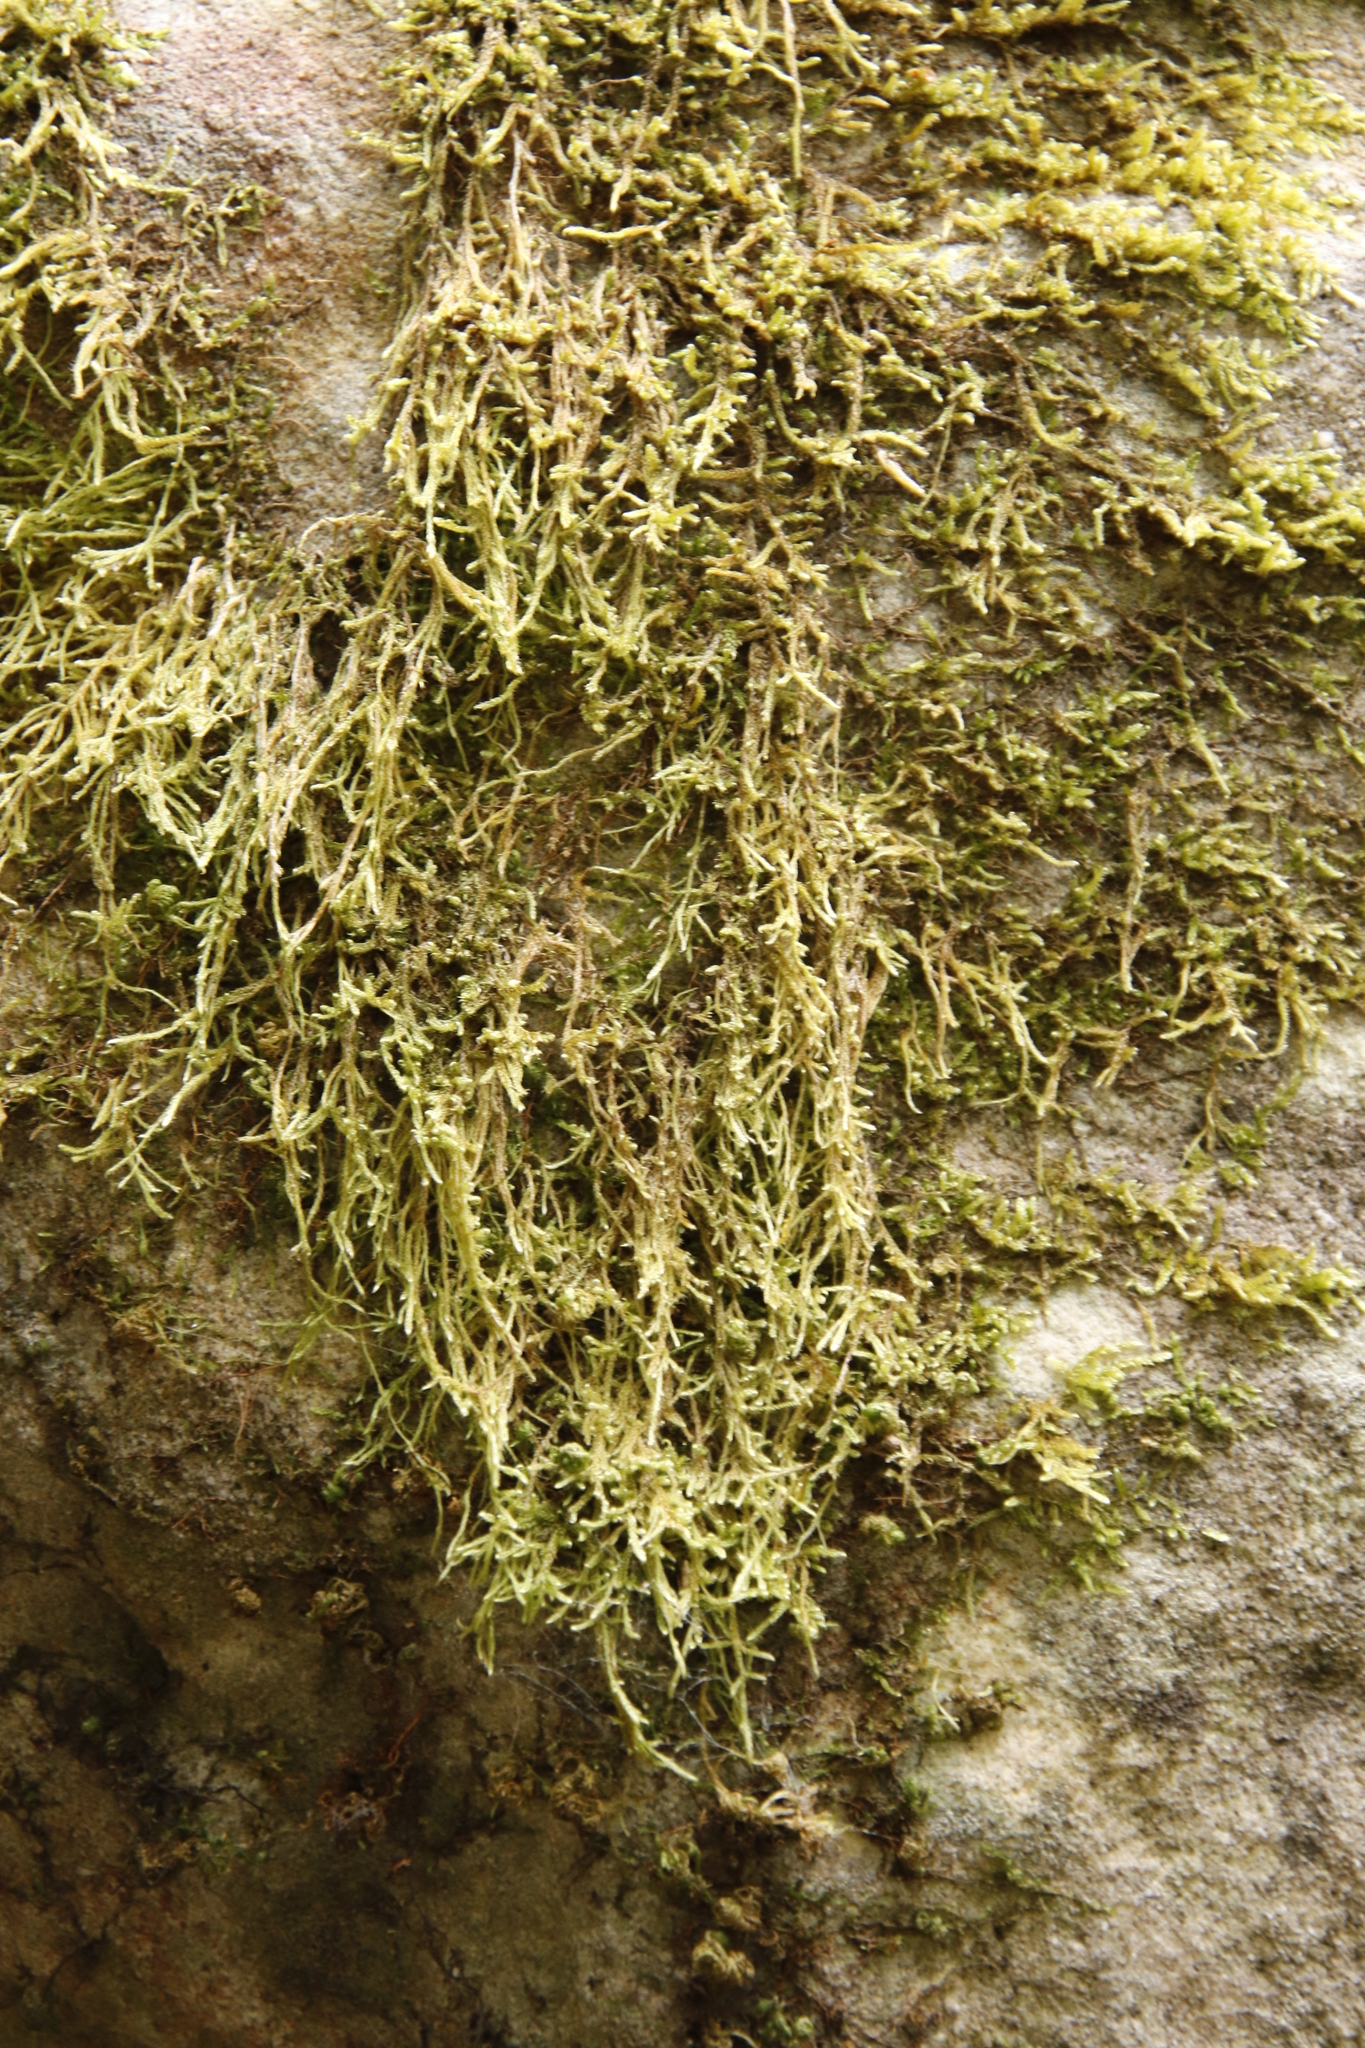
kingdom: Plantae
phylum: Bryophyta
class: Bryopsida
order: Hypnales
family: Hypnaceae
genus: Hypnum
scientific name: Hypnum cupressiforme
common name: Cypress-leaved plait-moss
